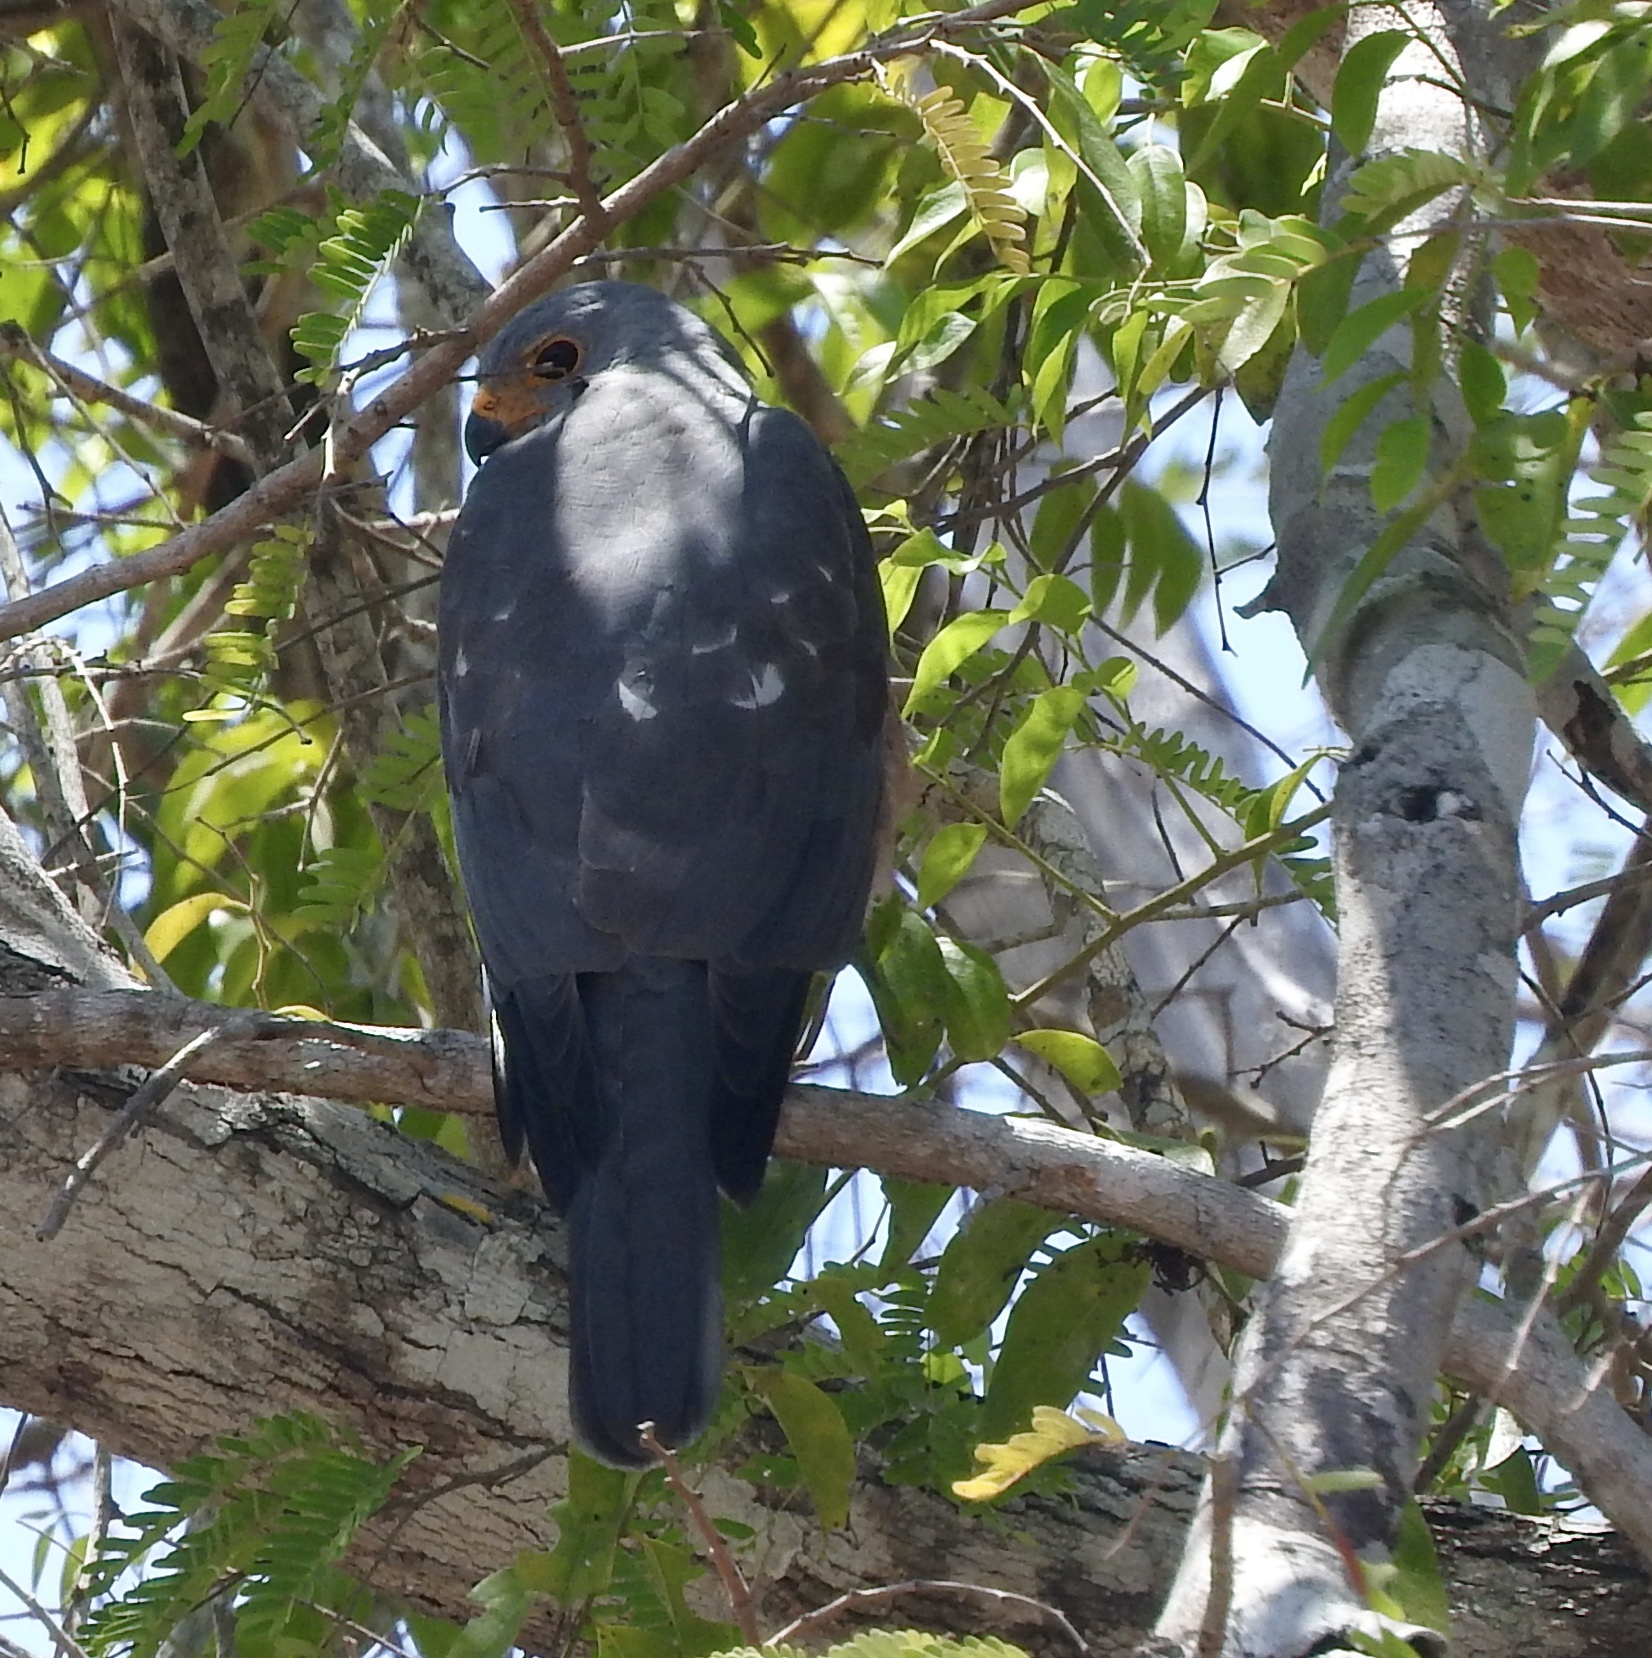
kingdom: Animalia
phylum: Chordata
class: Aves
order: Accipitriformes
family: Accipitridae
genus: Accipiter
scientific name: Accipiter hiogaster
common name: Variable goshawk
